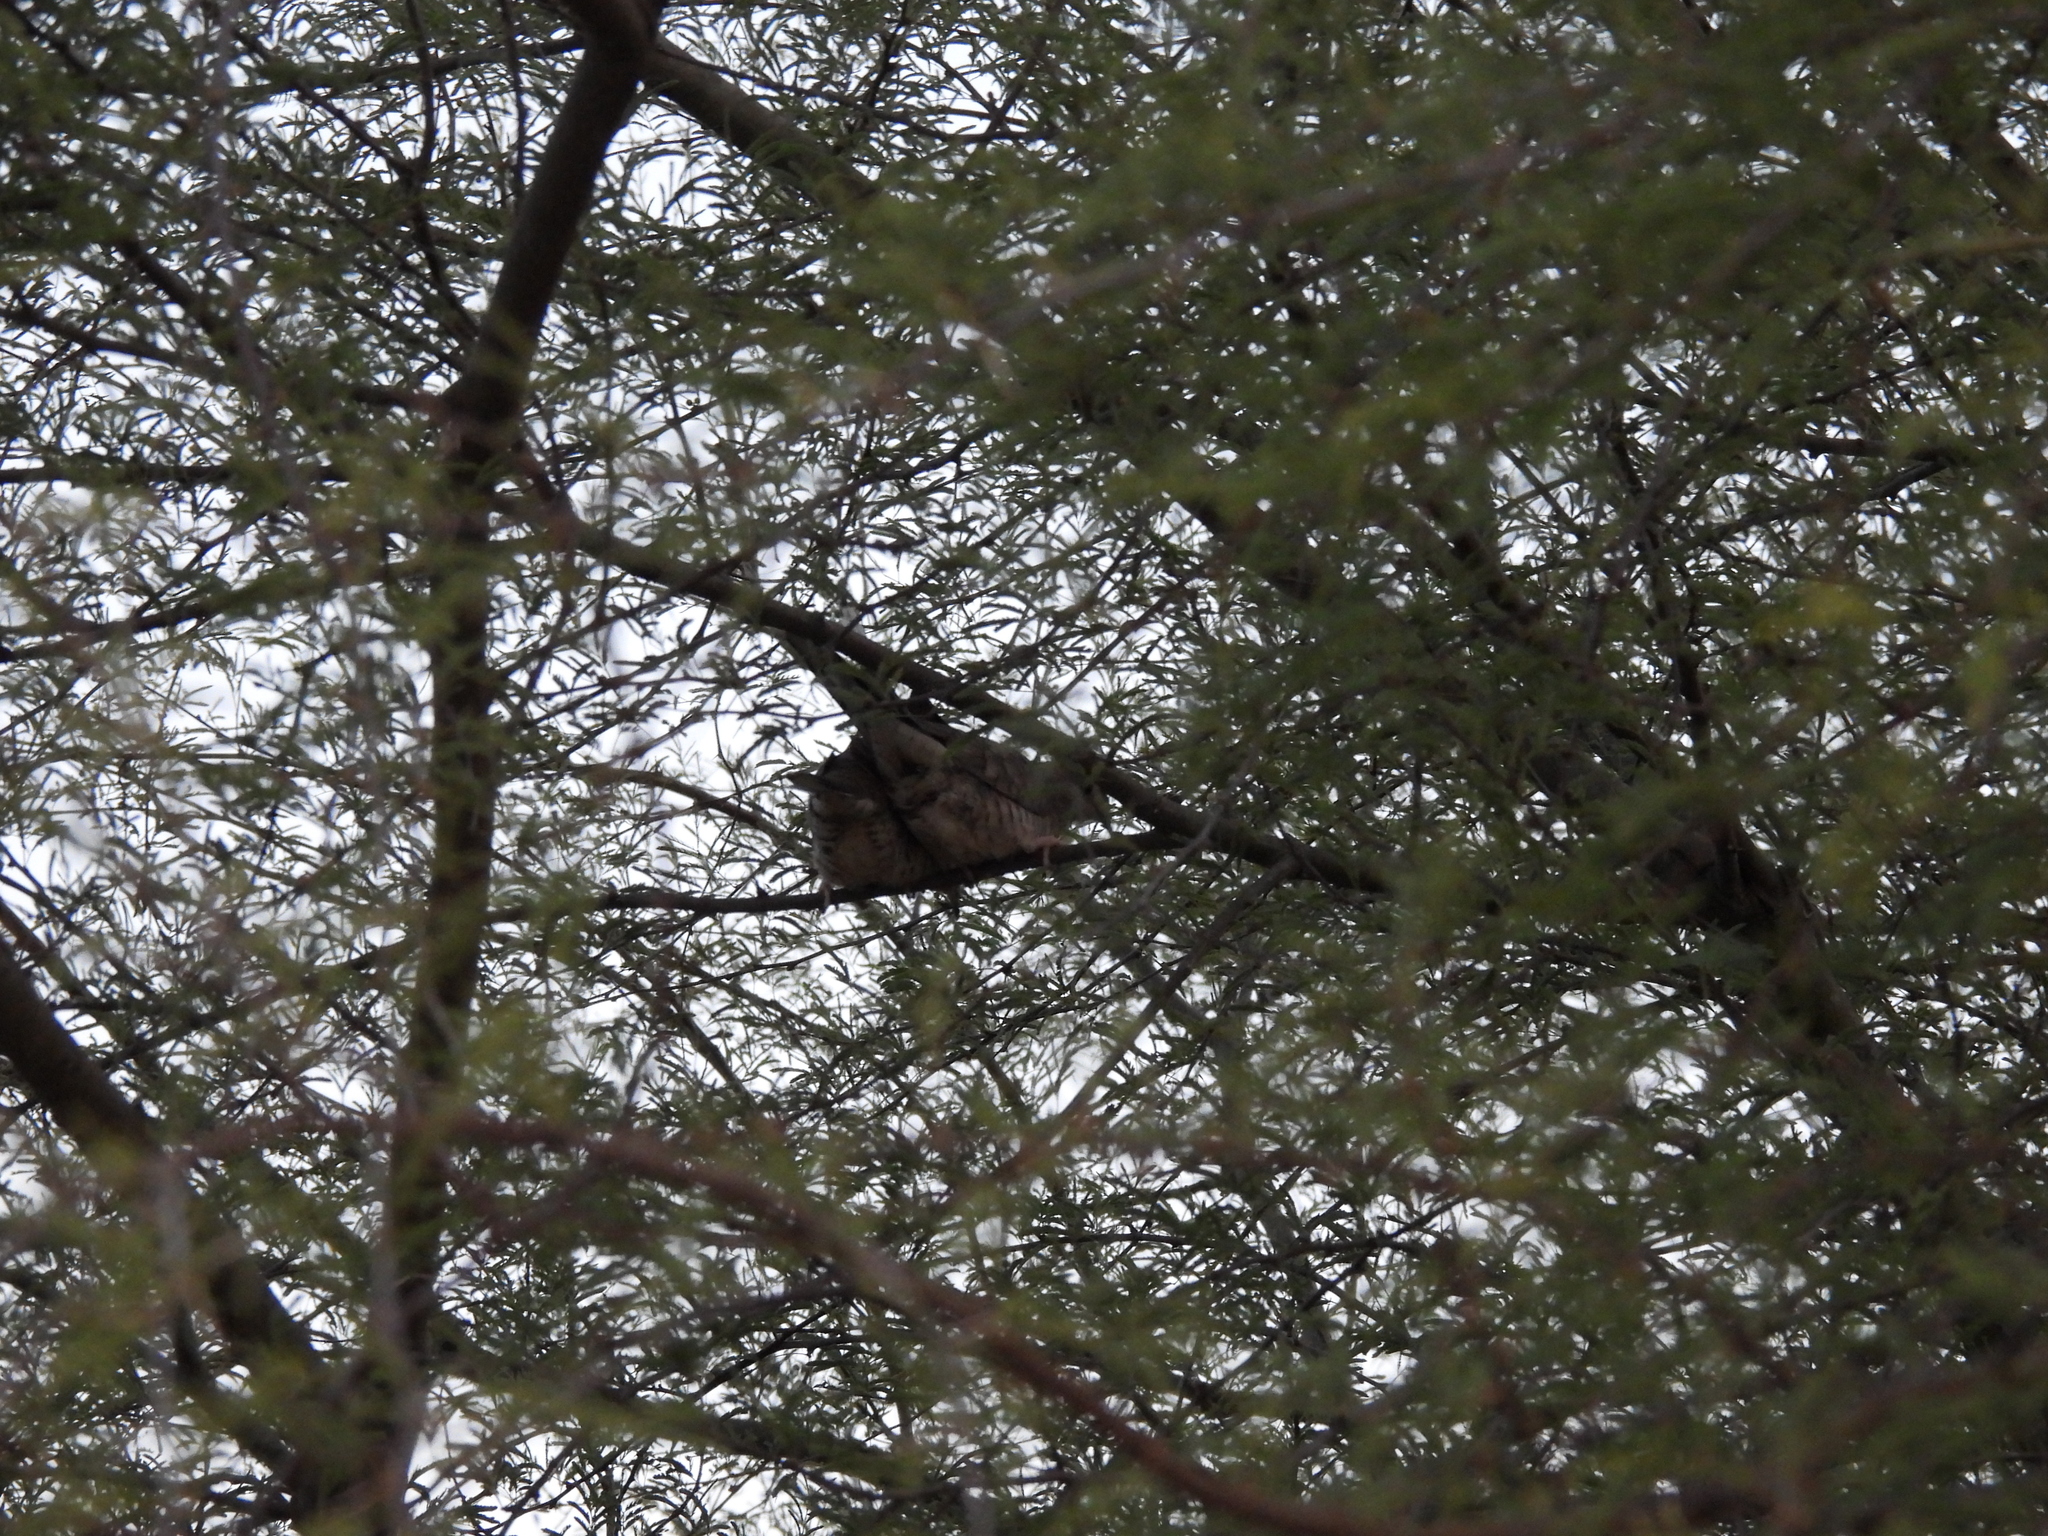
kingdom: Animalia
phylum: Chordata
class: Aves
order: Columbiformes
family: Columbidae
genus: Columbina
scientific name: Columbina inca
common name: Inca dove
